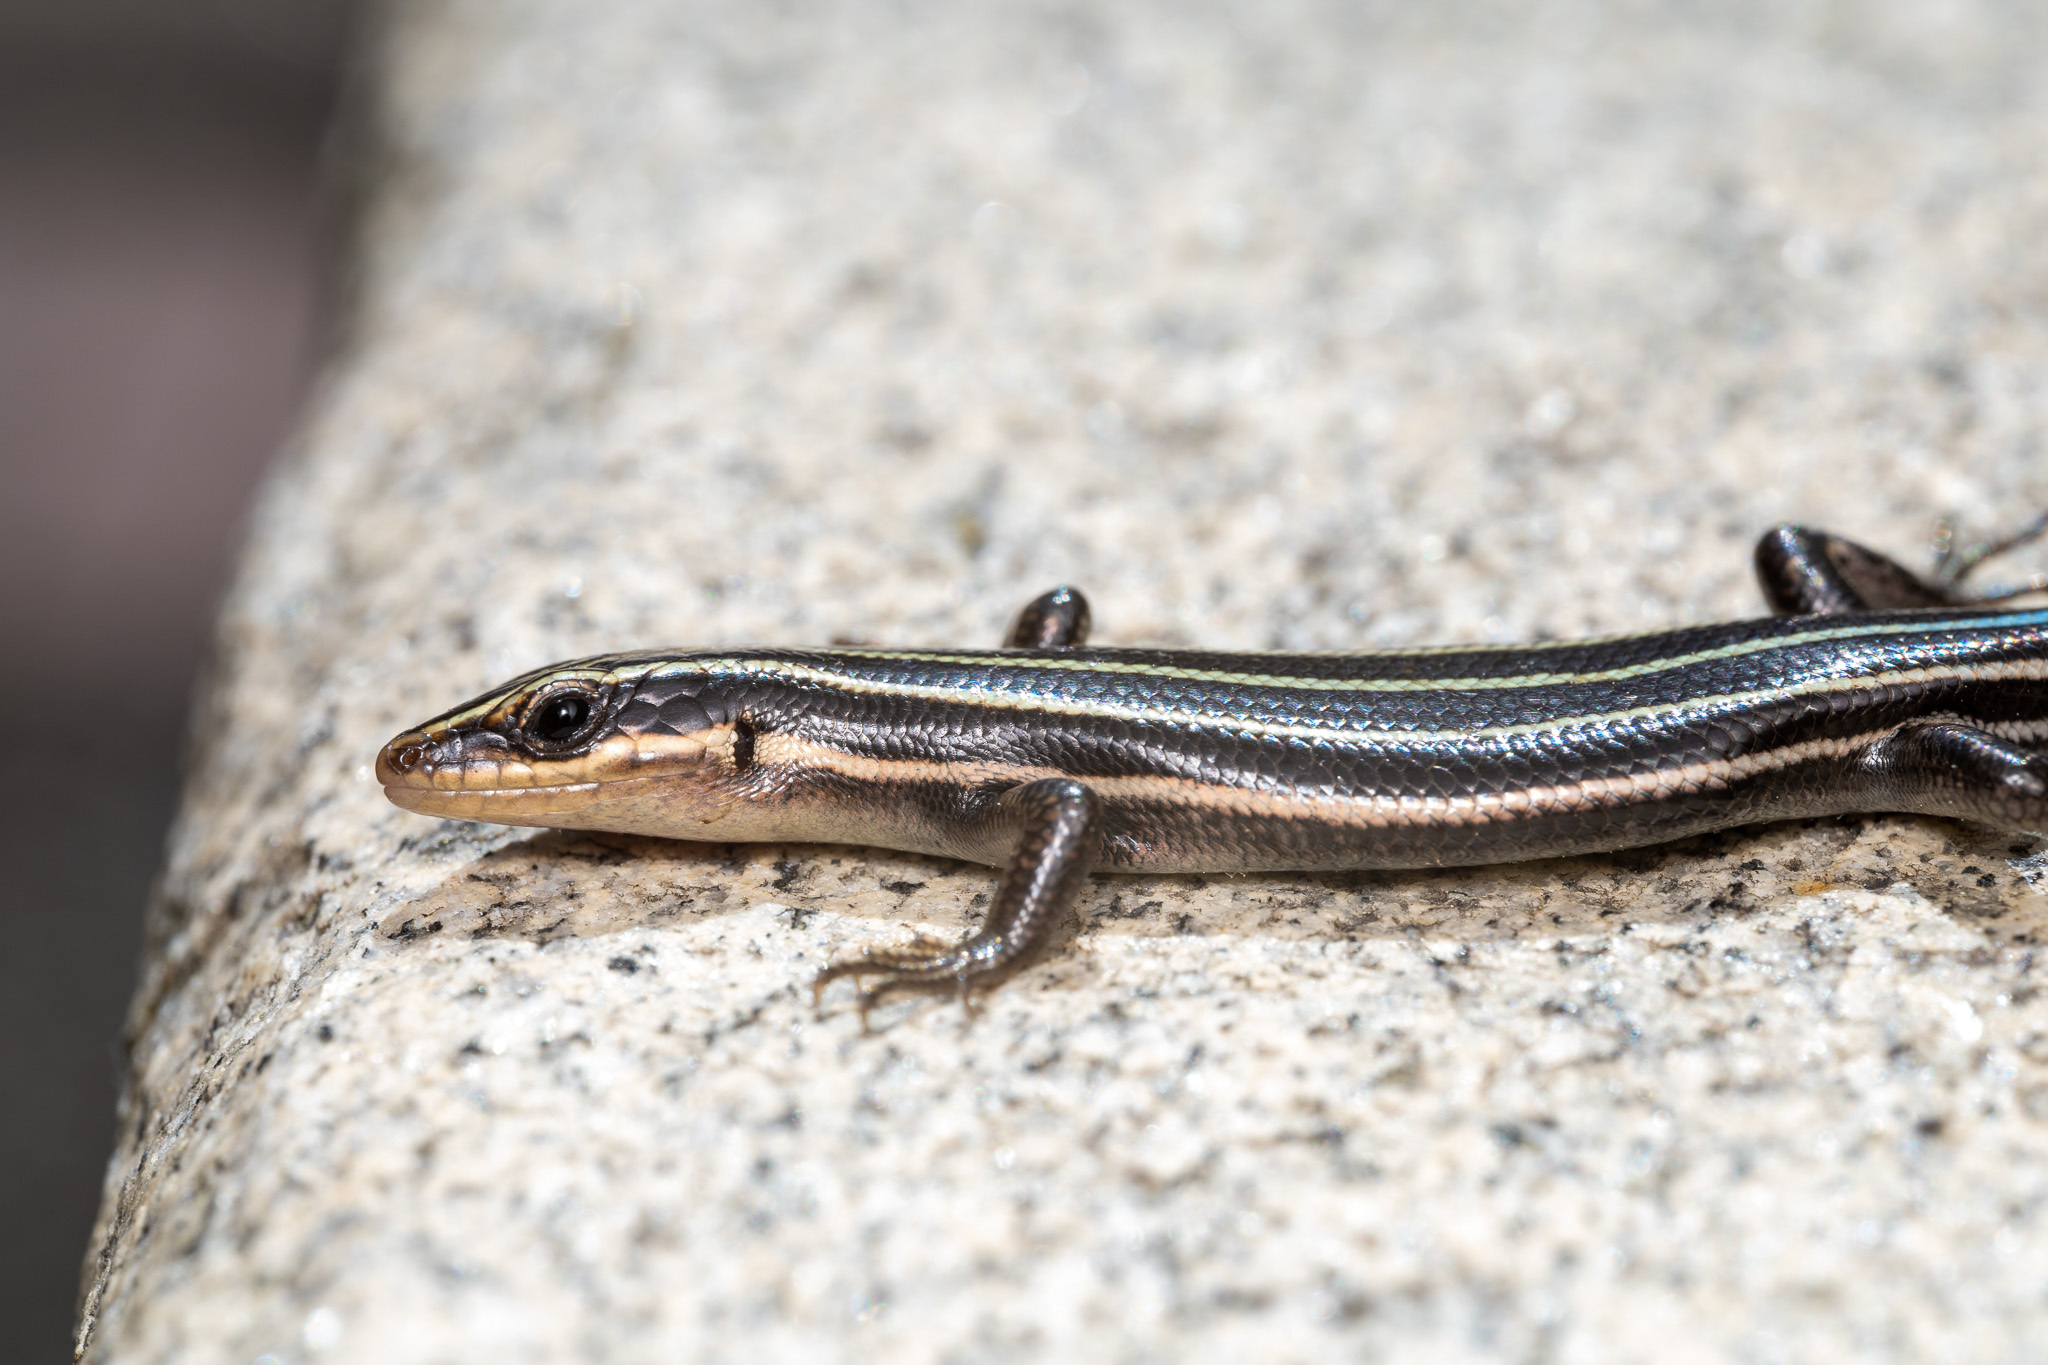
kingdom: Animalia
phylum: Chordata
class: Squamata
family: Scincidae
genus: Plestiodon
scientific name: Plestiodon fasciatus
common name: Five-lined skink
